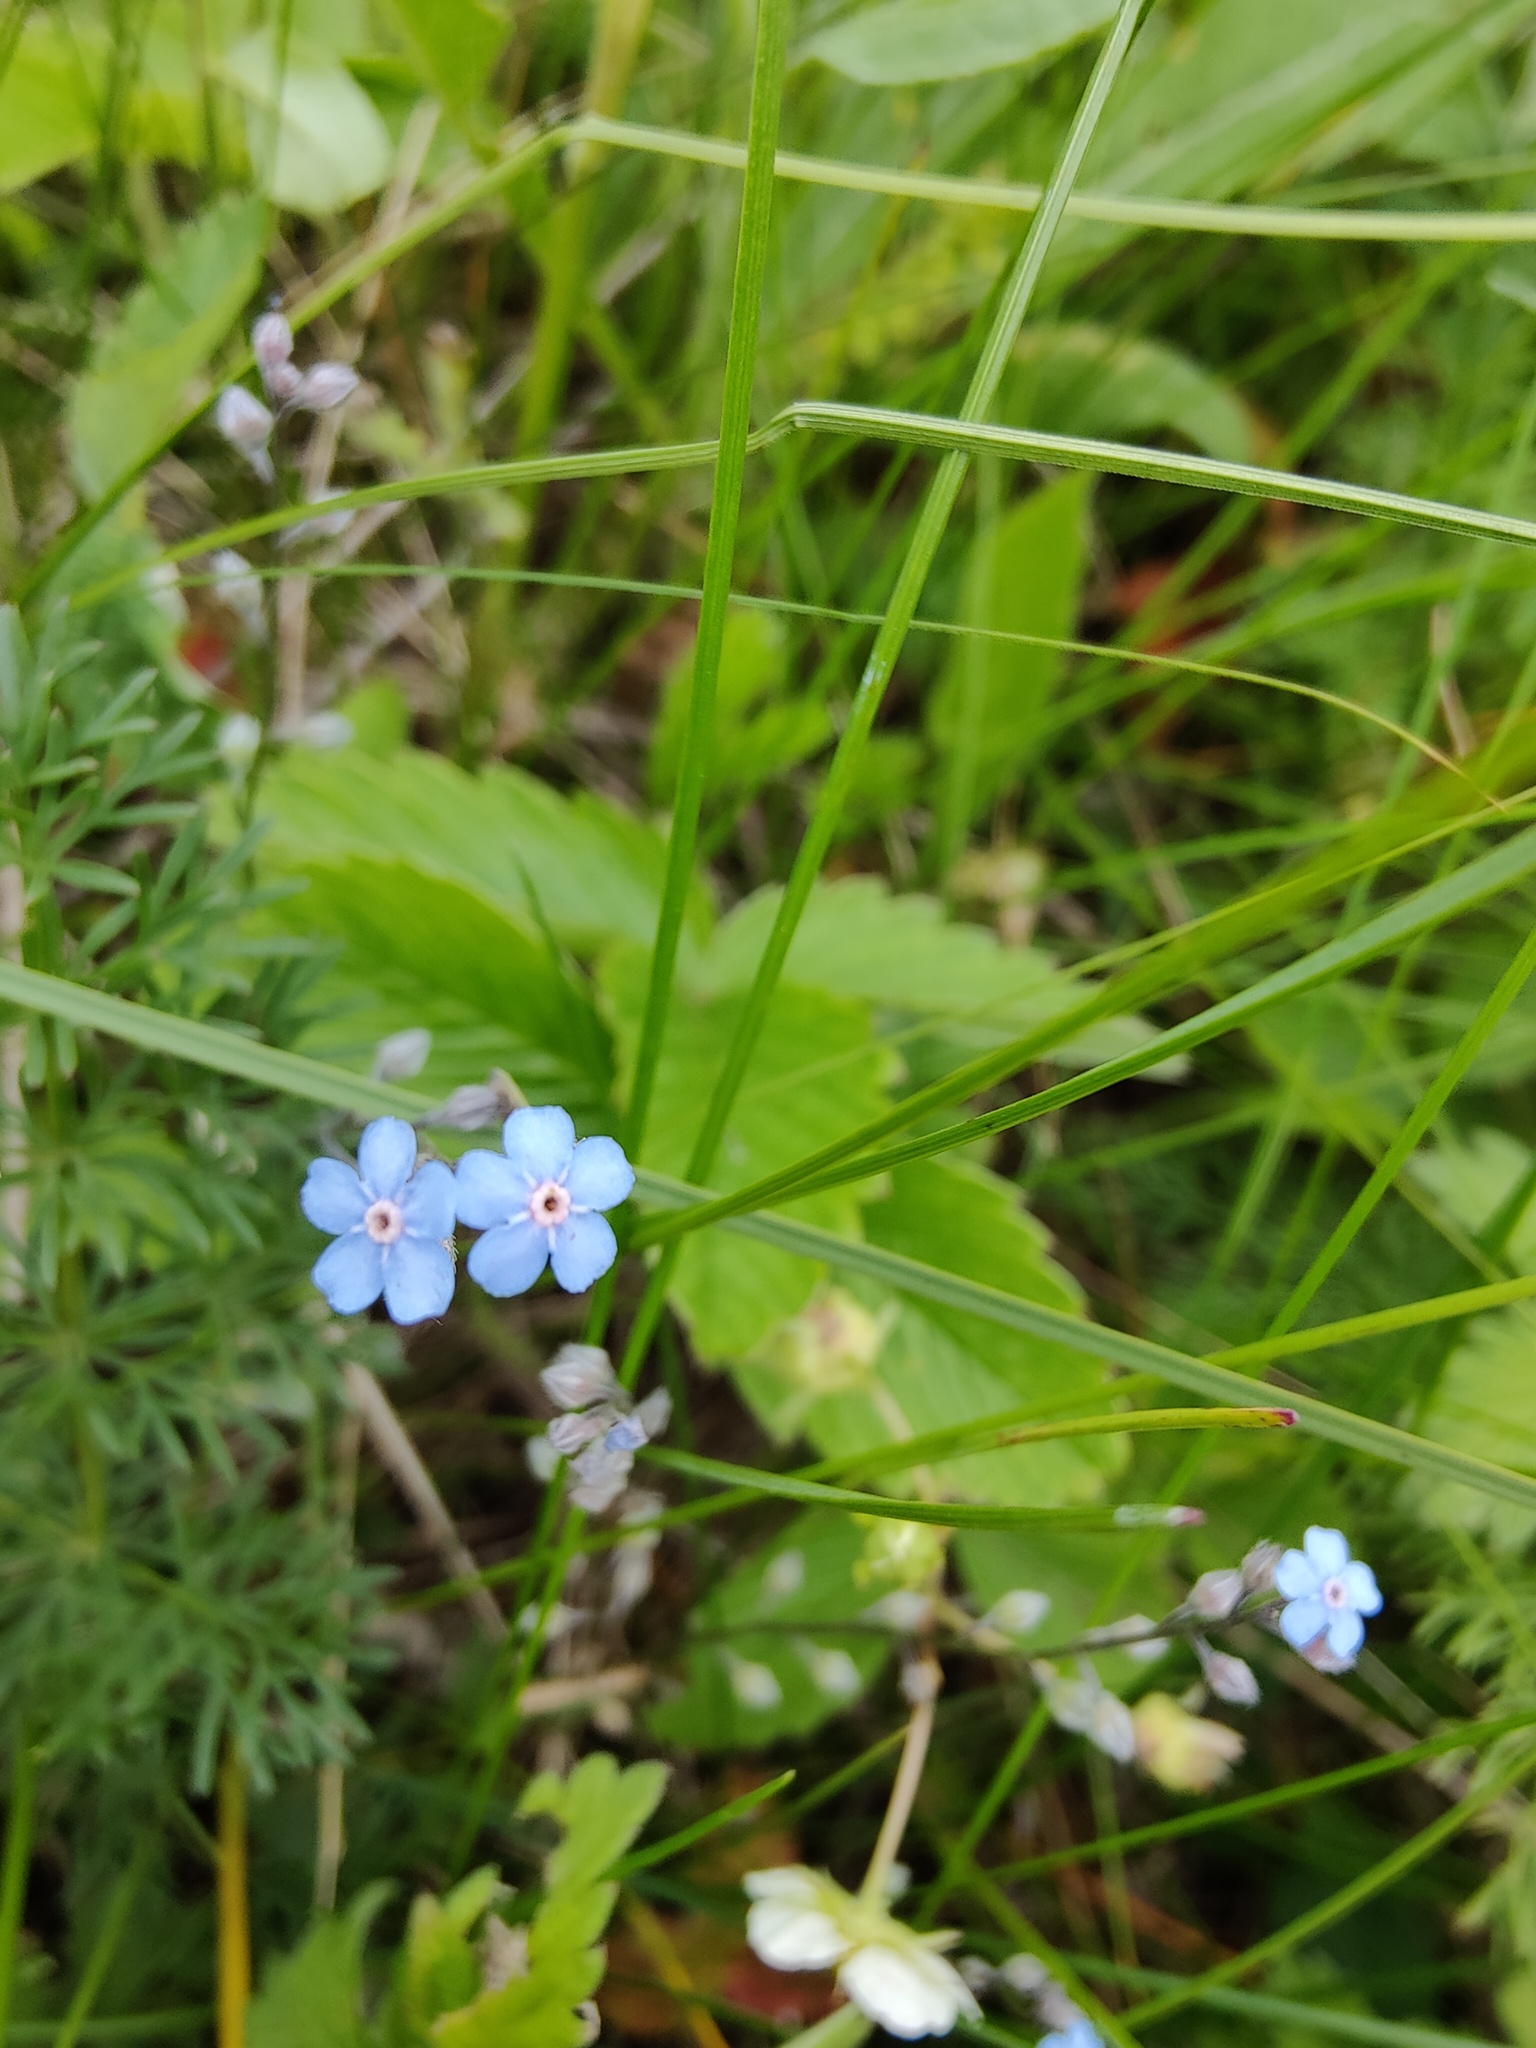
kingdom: Plantae
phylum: Tracheophyta
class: Magnoliopsida
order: Boraginales
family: Boraginaceae
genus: Myosotis
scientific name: Myosotis alpestris
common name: Alpine forget-me-not
